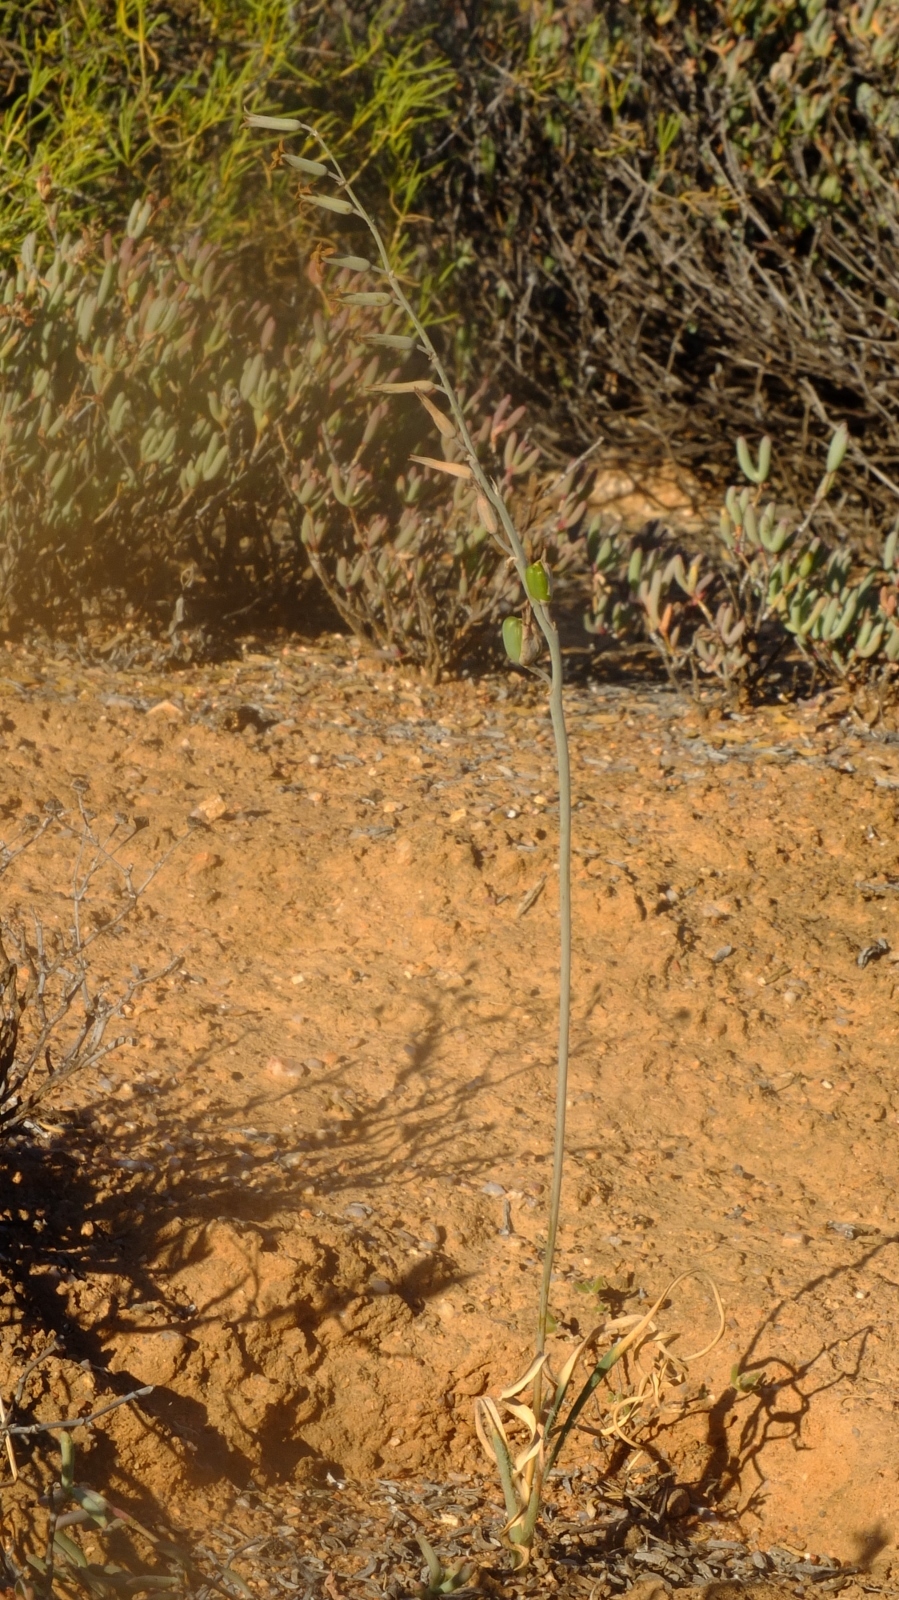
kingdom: Plantae
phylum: Tracheophyta
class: Liliopsida
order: Asparagales
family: Asparagaceae
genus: Dipcadi
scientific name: Dipcadi crispum
